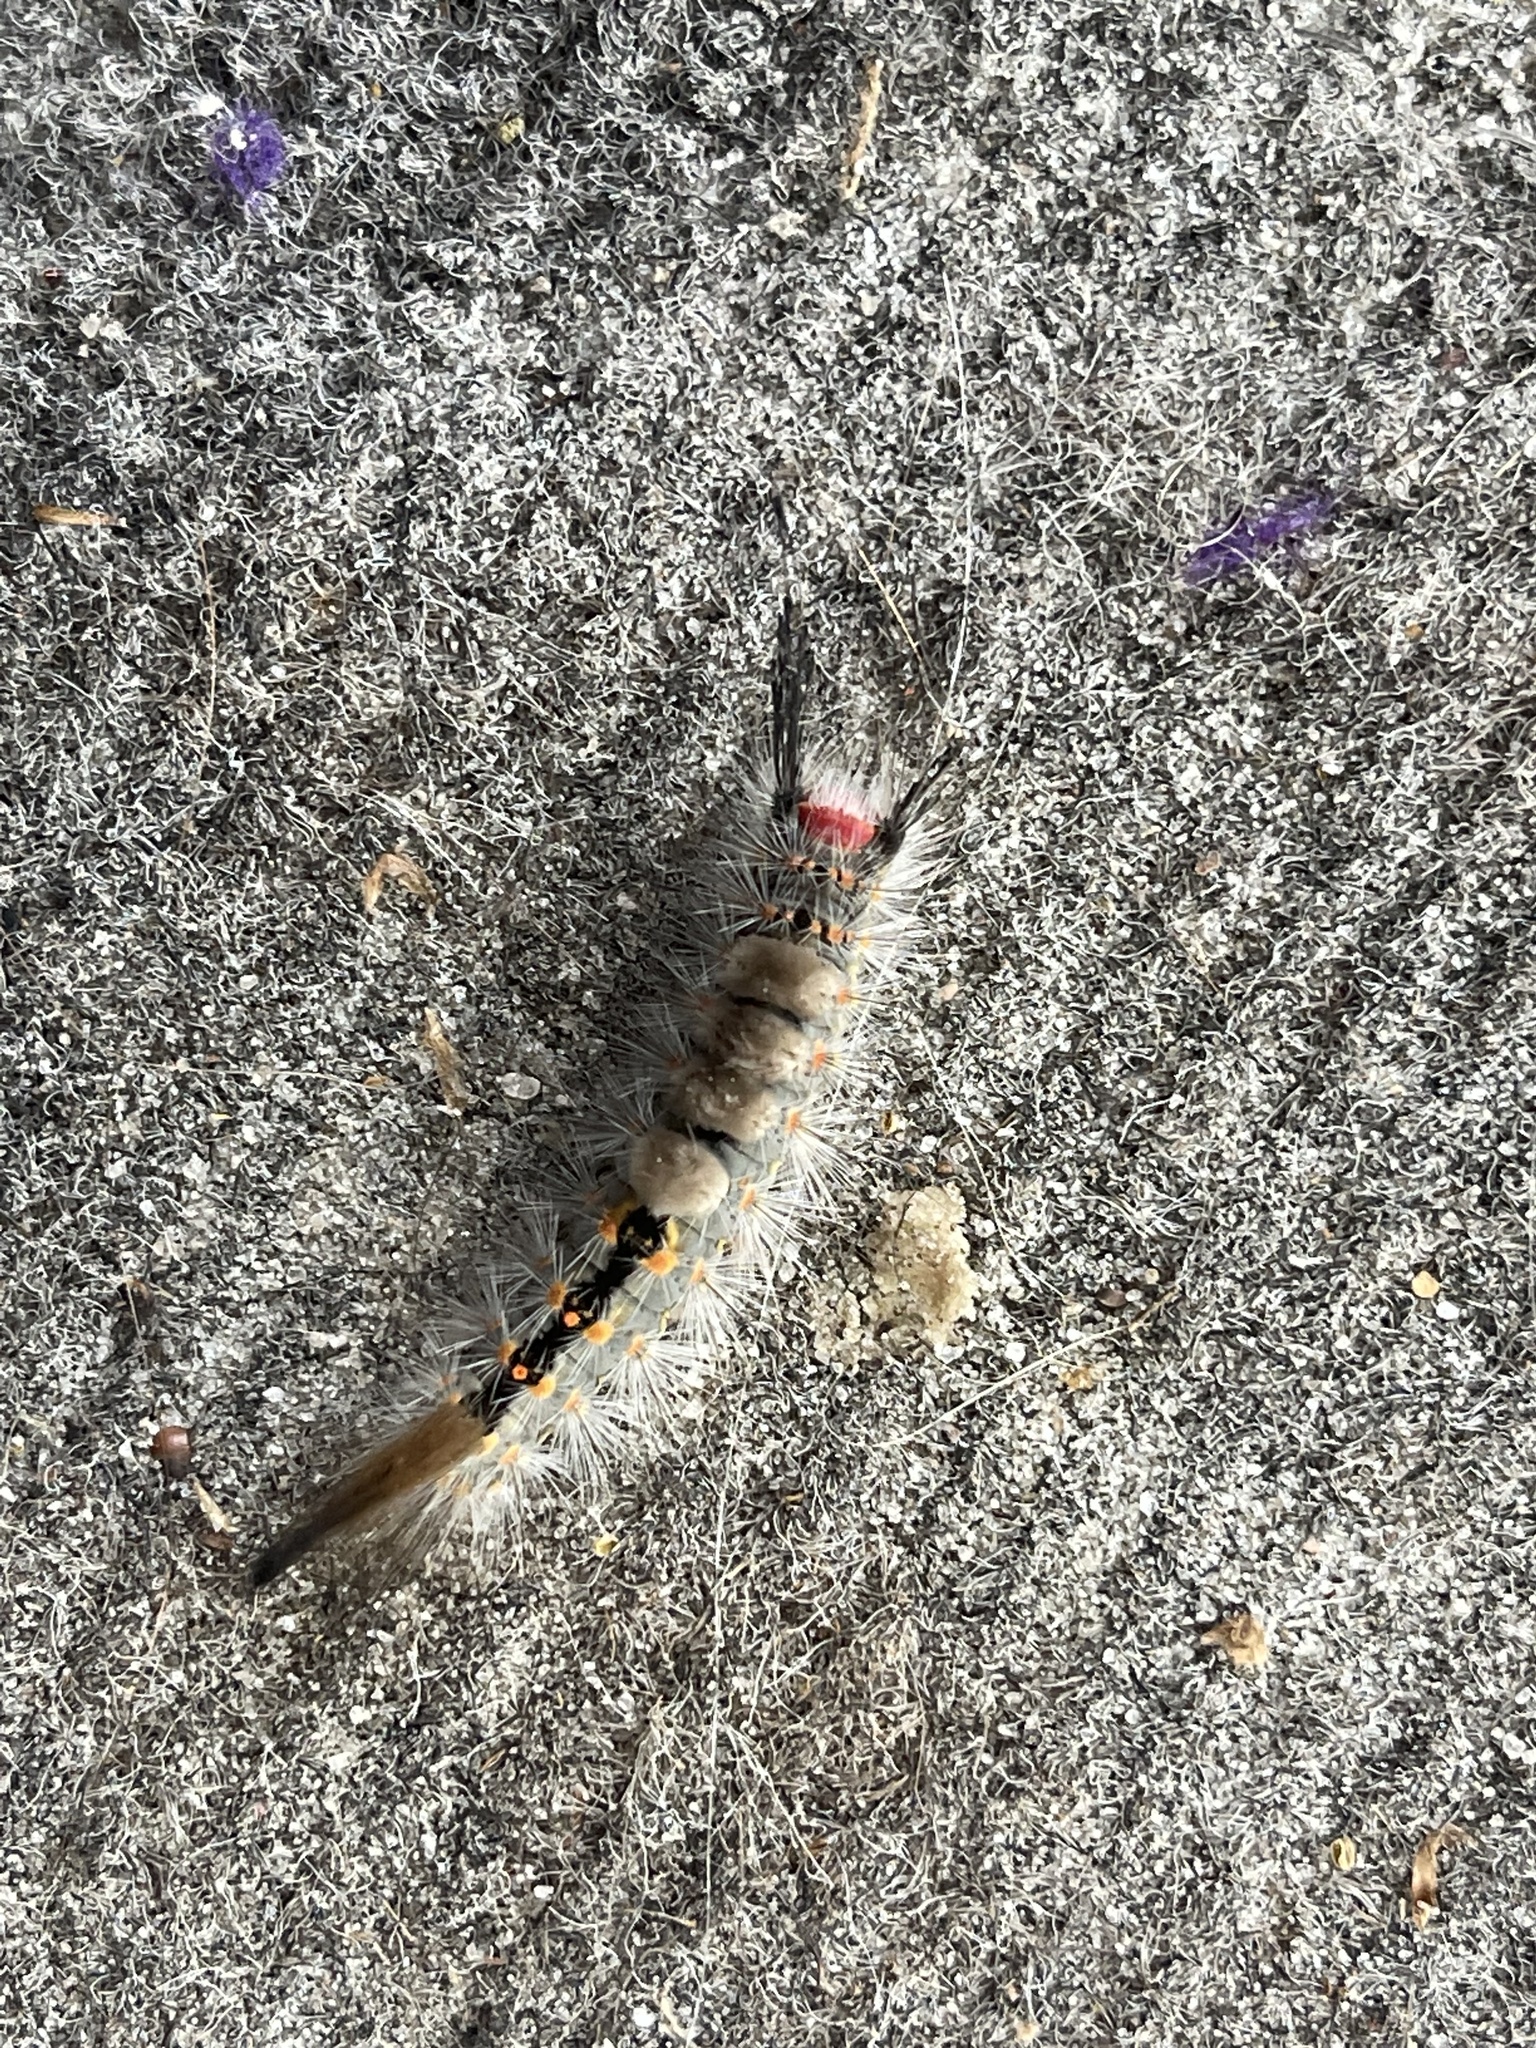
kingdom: Animalia
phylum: Arthropoda
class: Insecta
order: Lepidoptera
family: Erebidae
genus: Orgyia
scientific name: Orgyia detrita
